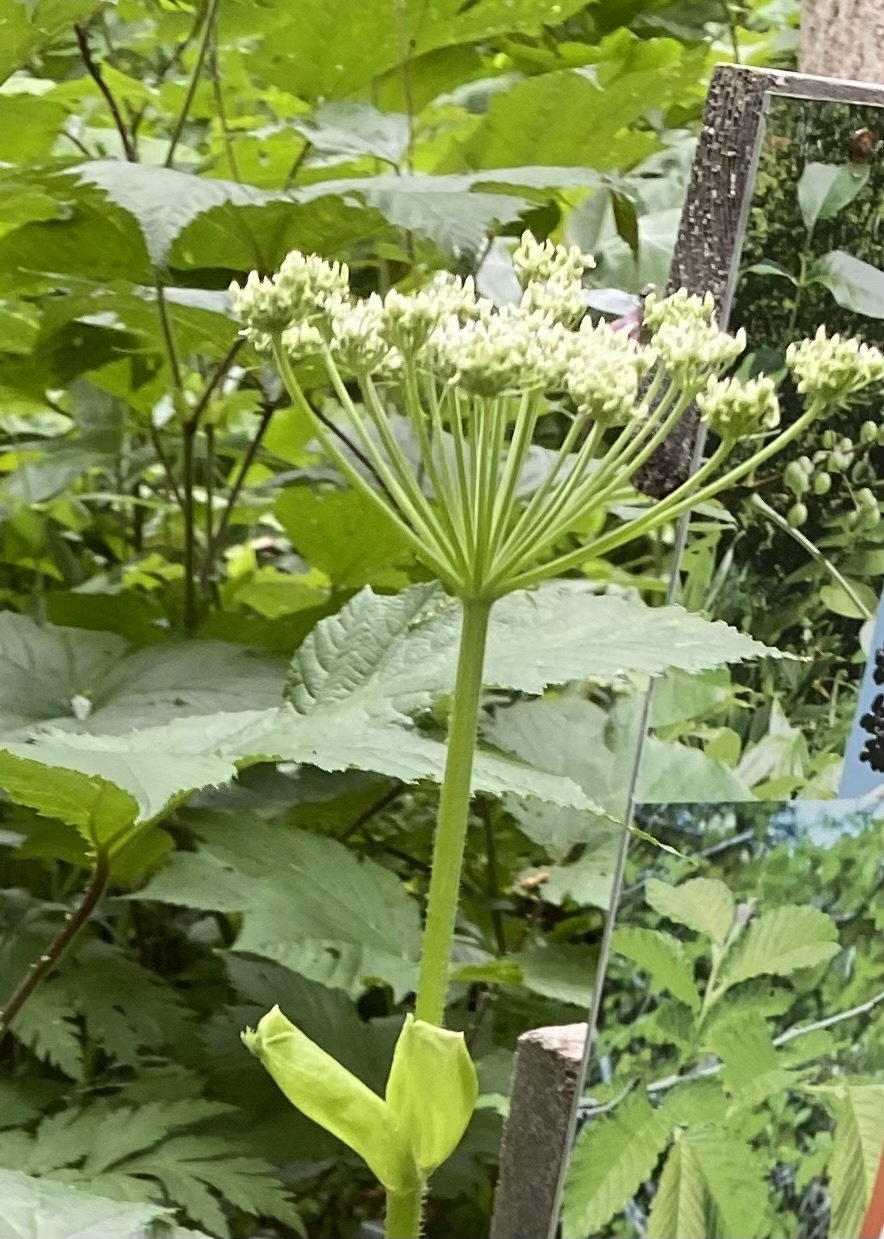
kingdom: Plantae
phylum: Tracheophyta
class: Magnoliopsida
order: Apiales
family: Apiaceae
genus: Heracleum
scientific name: Heracleum maximum
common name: American cow parsnip
